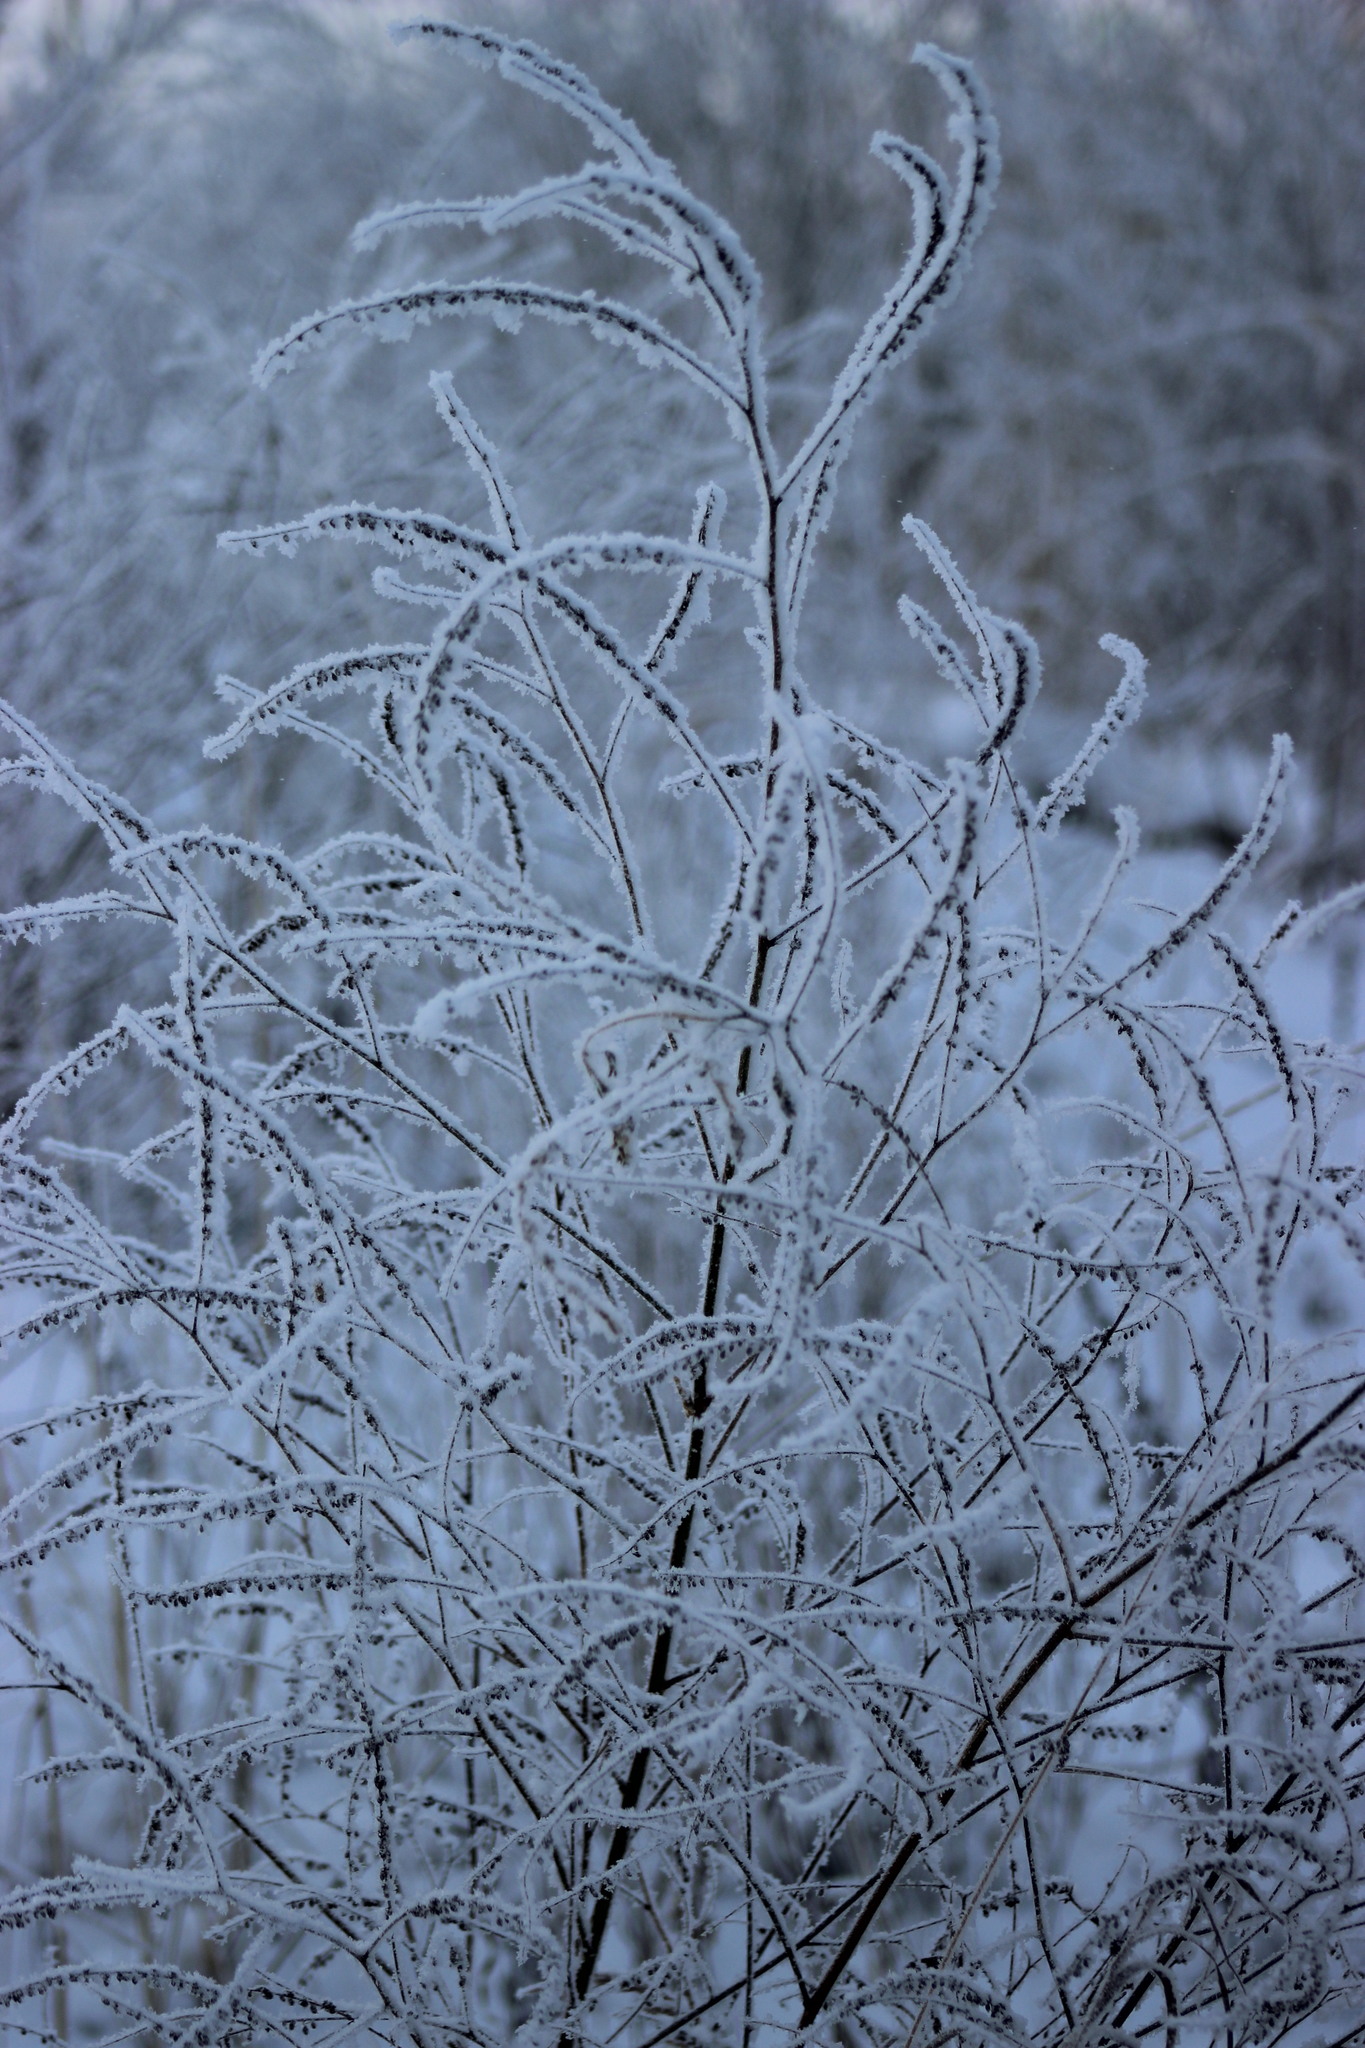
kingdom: Plantae
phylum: Tracheophyta
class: Magnoliopsida
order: Fabales
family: Fabaceae
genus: Melilotus
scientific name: Melilotus officinalis
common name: Sweetclover
